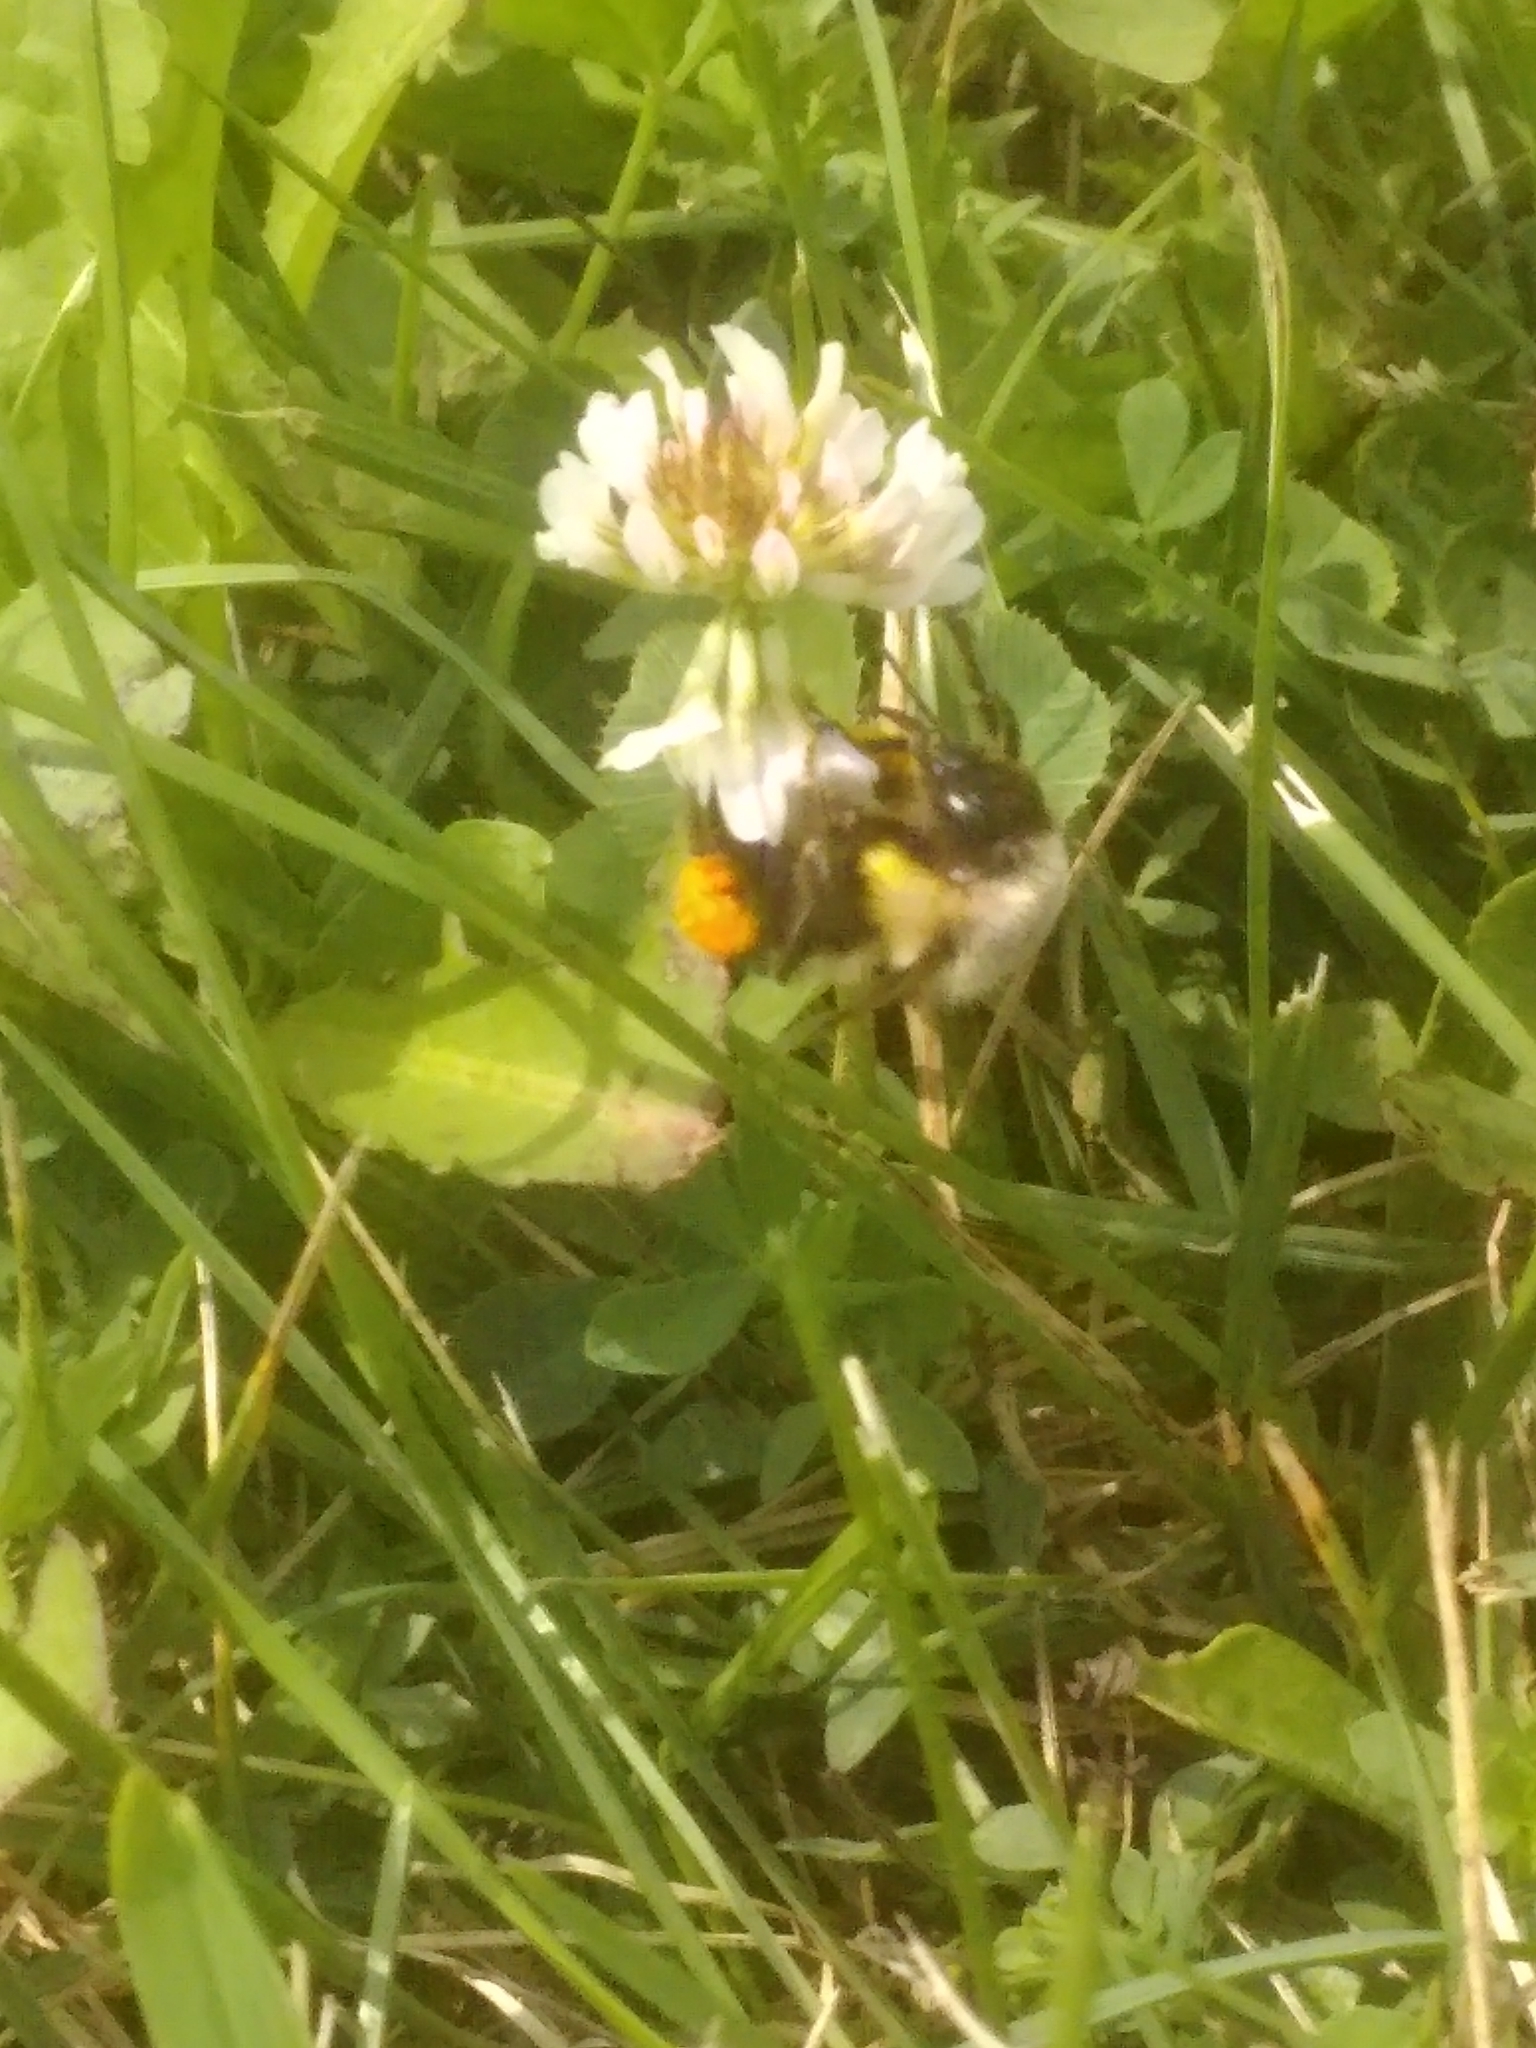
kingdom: Animalia
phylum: Arthropoda
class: Insecta
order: Hymenoptera
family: Apidae
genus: Bombus
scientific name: Bombus impatiens
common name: Common eastern bumble bee
